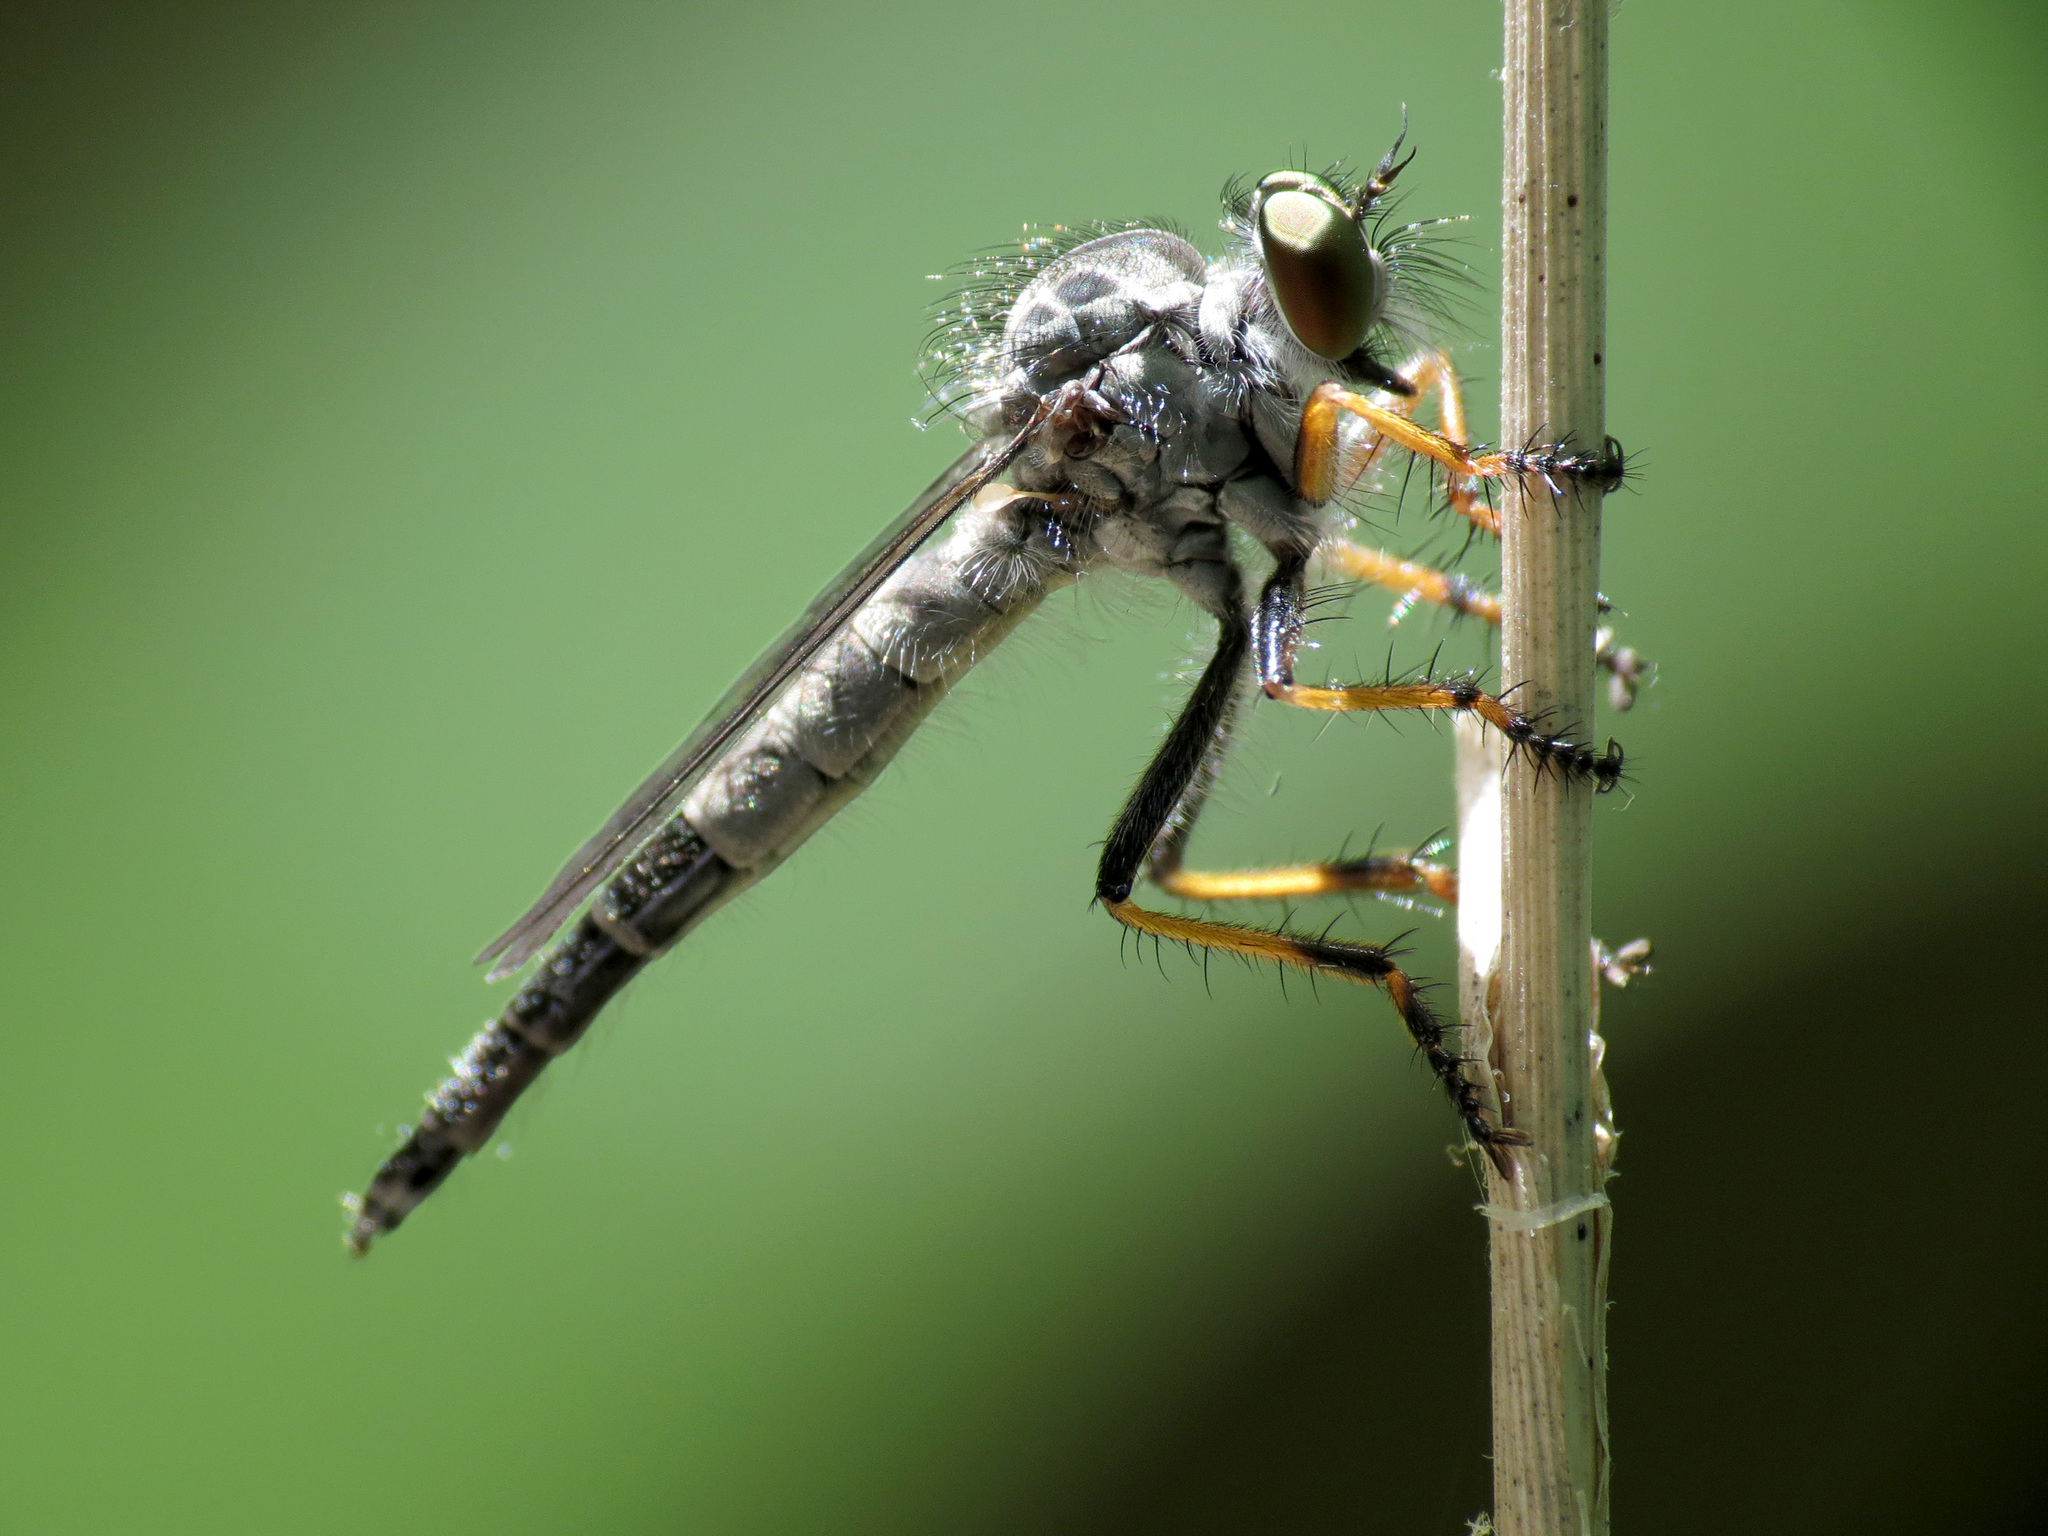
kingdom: Animalia
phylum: Arthropoda
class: Insecta
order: Diptera
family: Asilidae
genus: Asilus
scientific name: Asilus flavofemoratus
